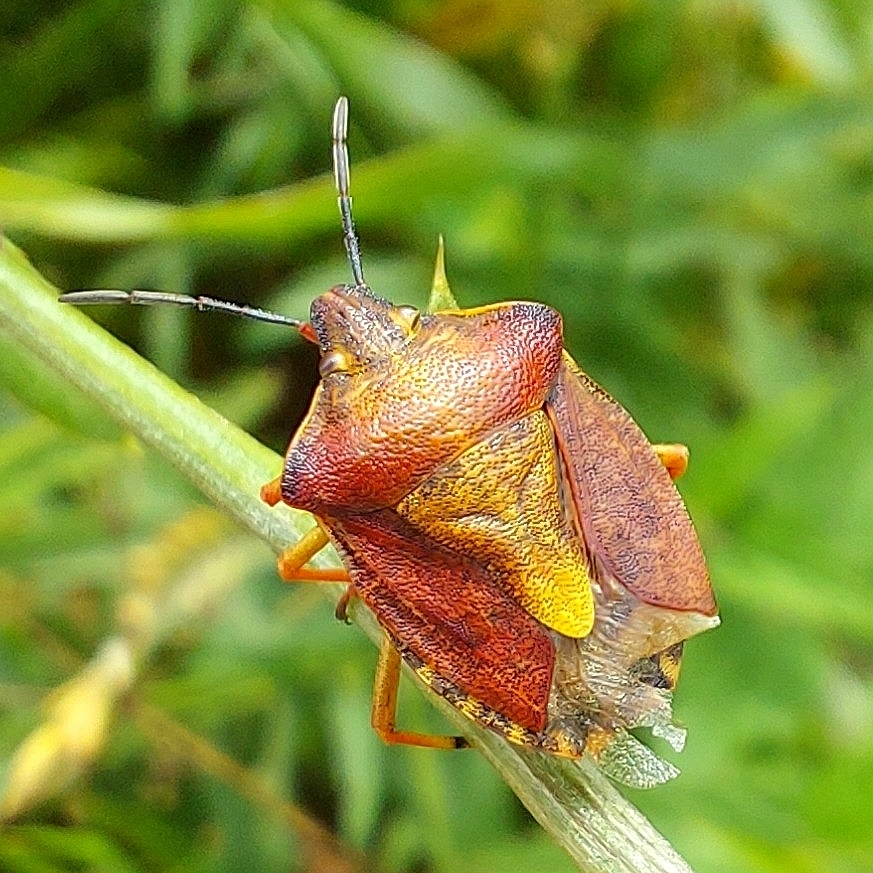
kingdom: Animalia
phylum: Arthropoda
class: Insecta
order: Hemiptera
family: Pentatomidae
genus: Carpocoris
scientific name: Carpocoris purpureipennis
